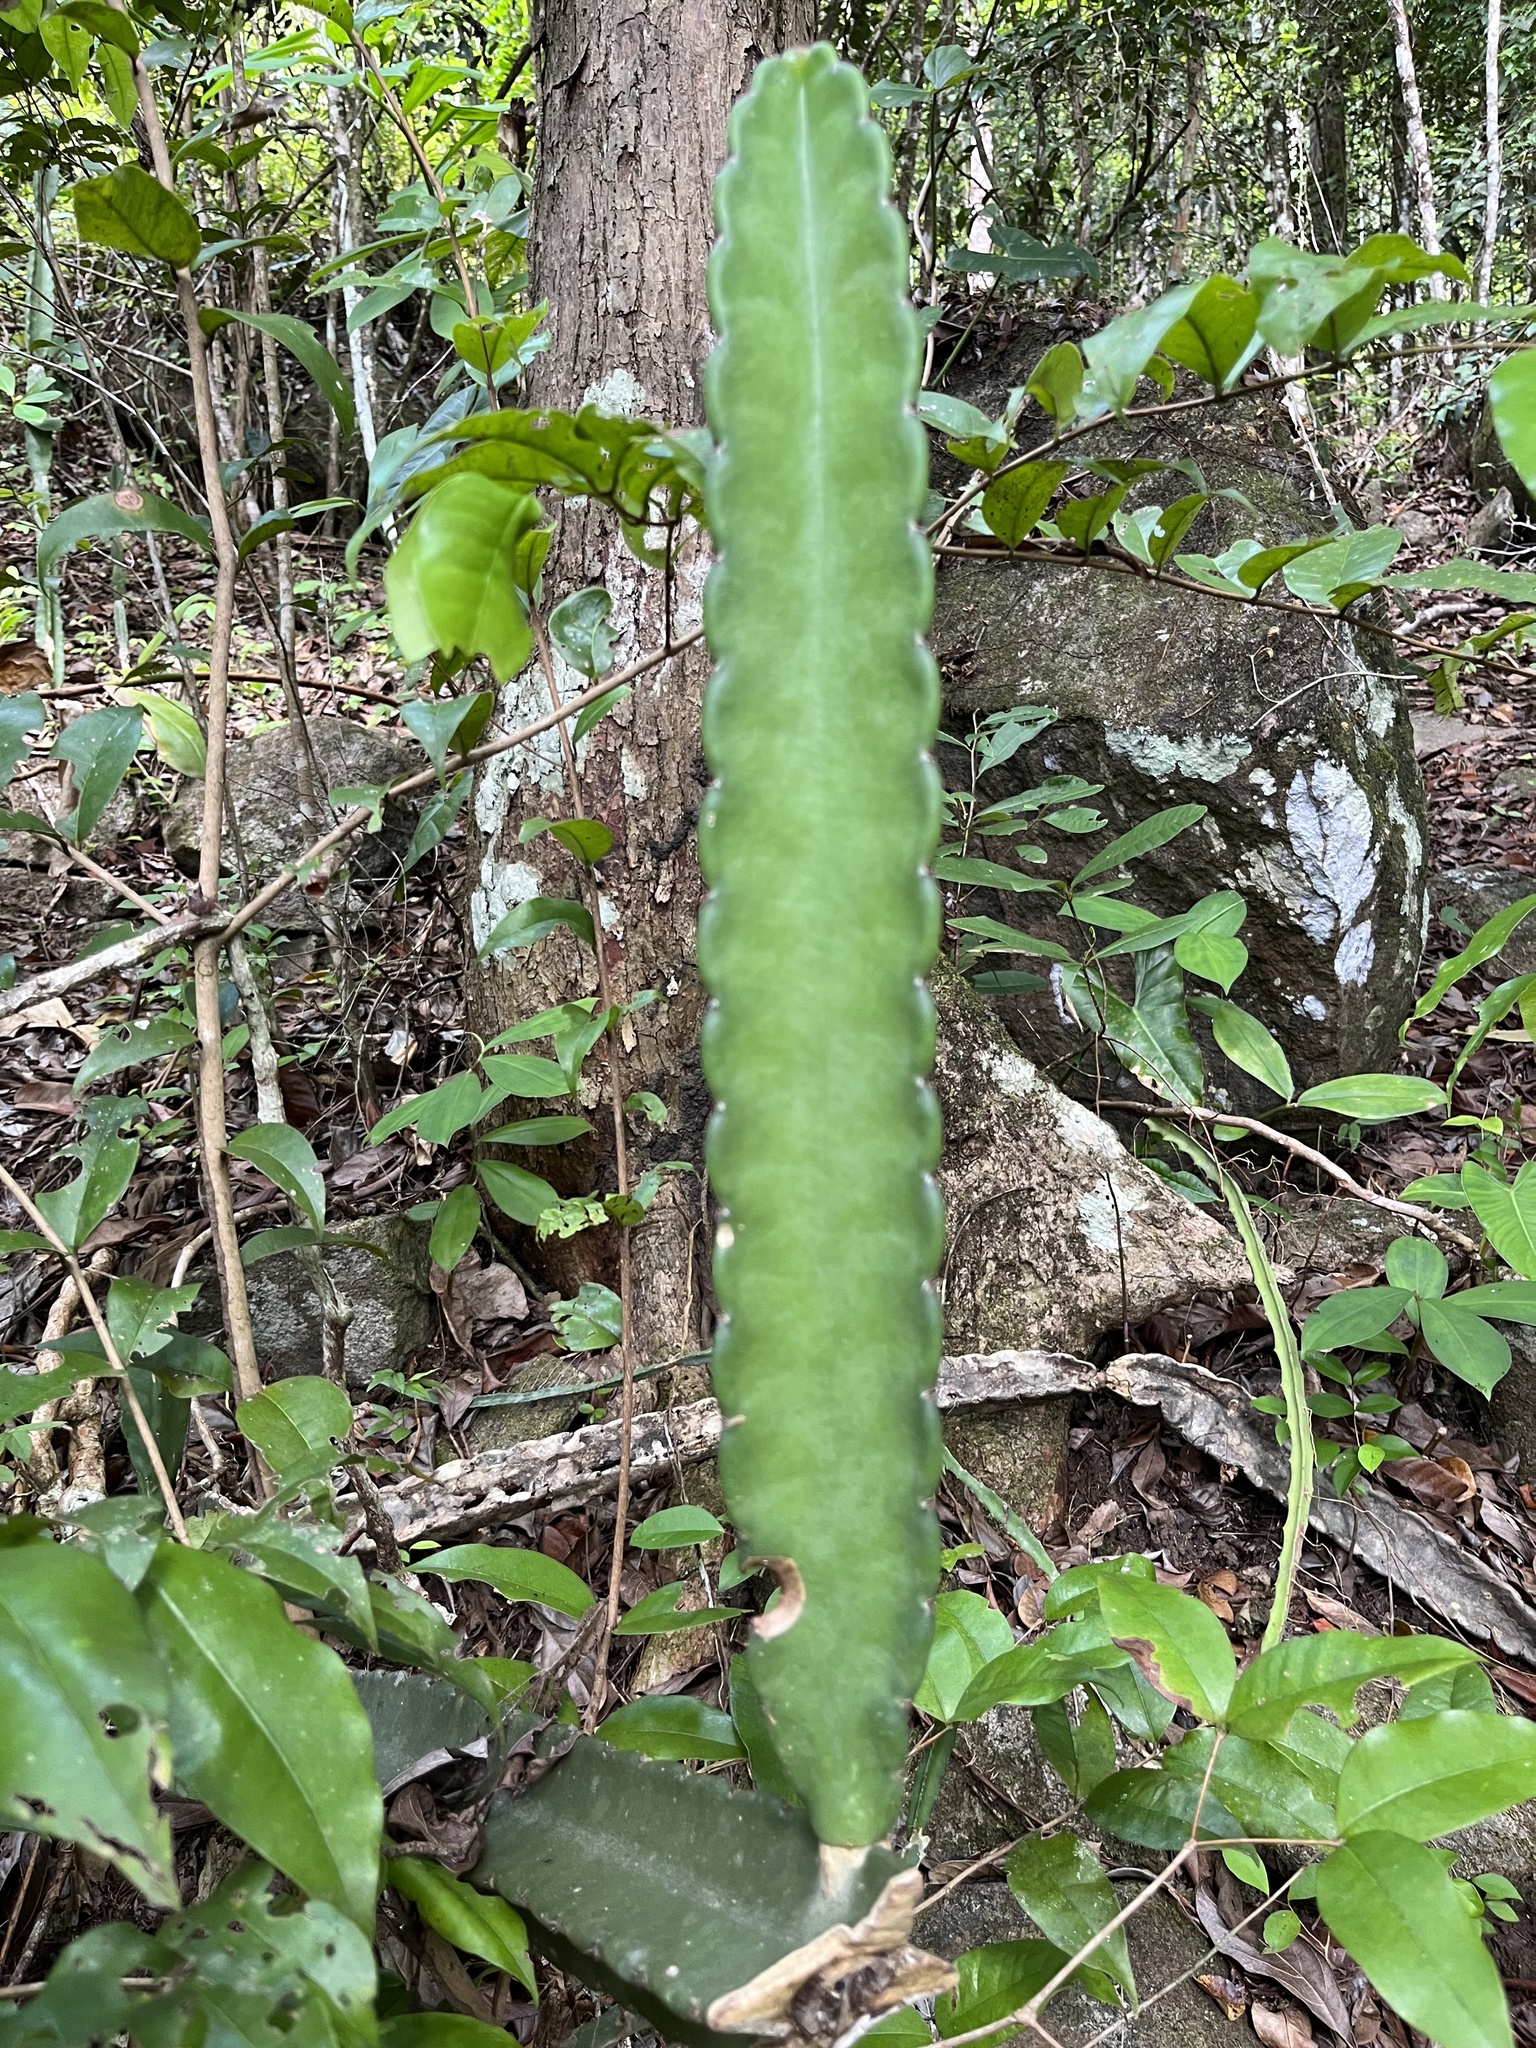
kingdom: Plantae
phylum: Tracheophyta
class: Magnoliopsida
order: Caryophyllales
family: Cactaceae
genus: Cereus
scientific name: Cereus hexagonus
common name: Lady of the night cactus
